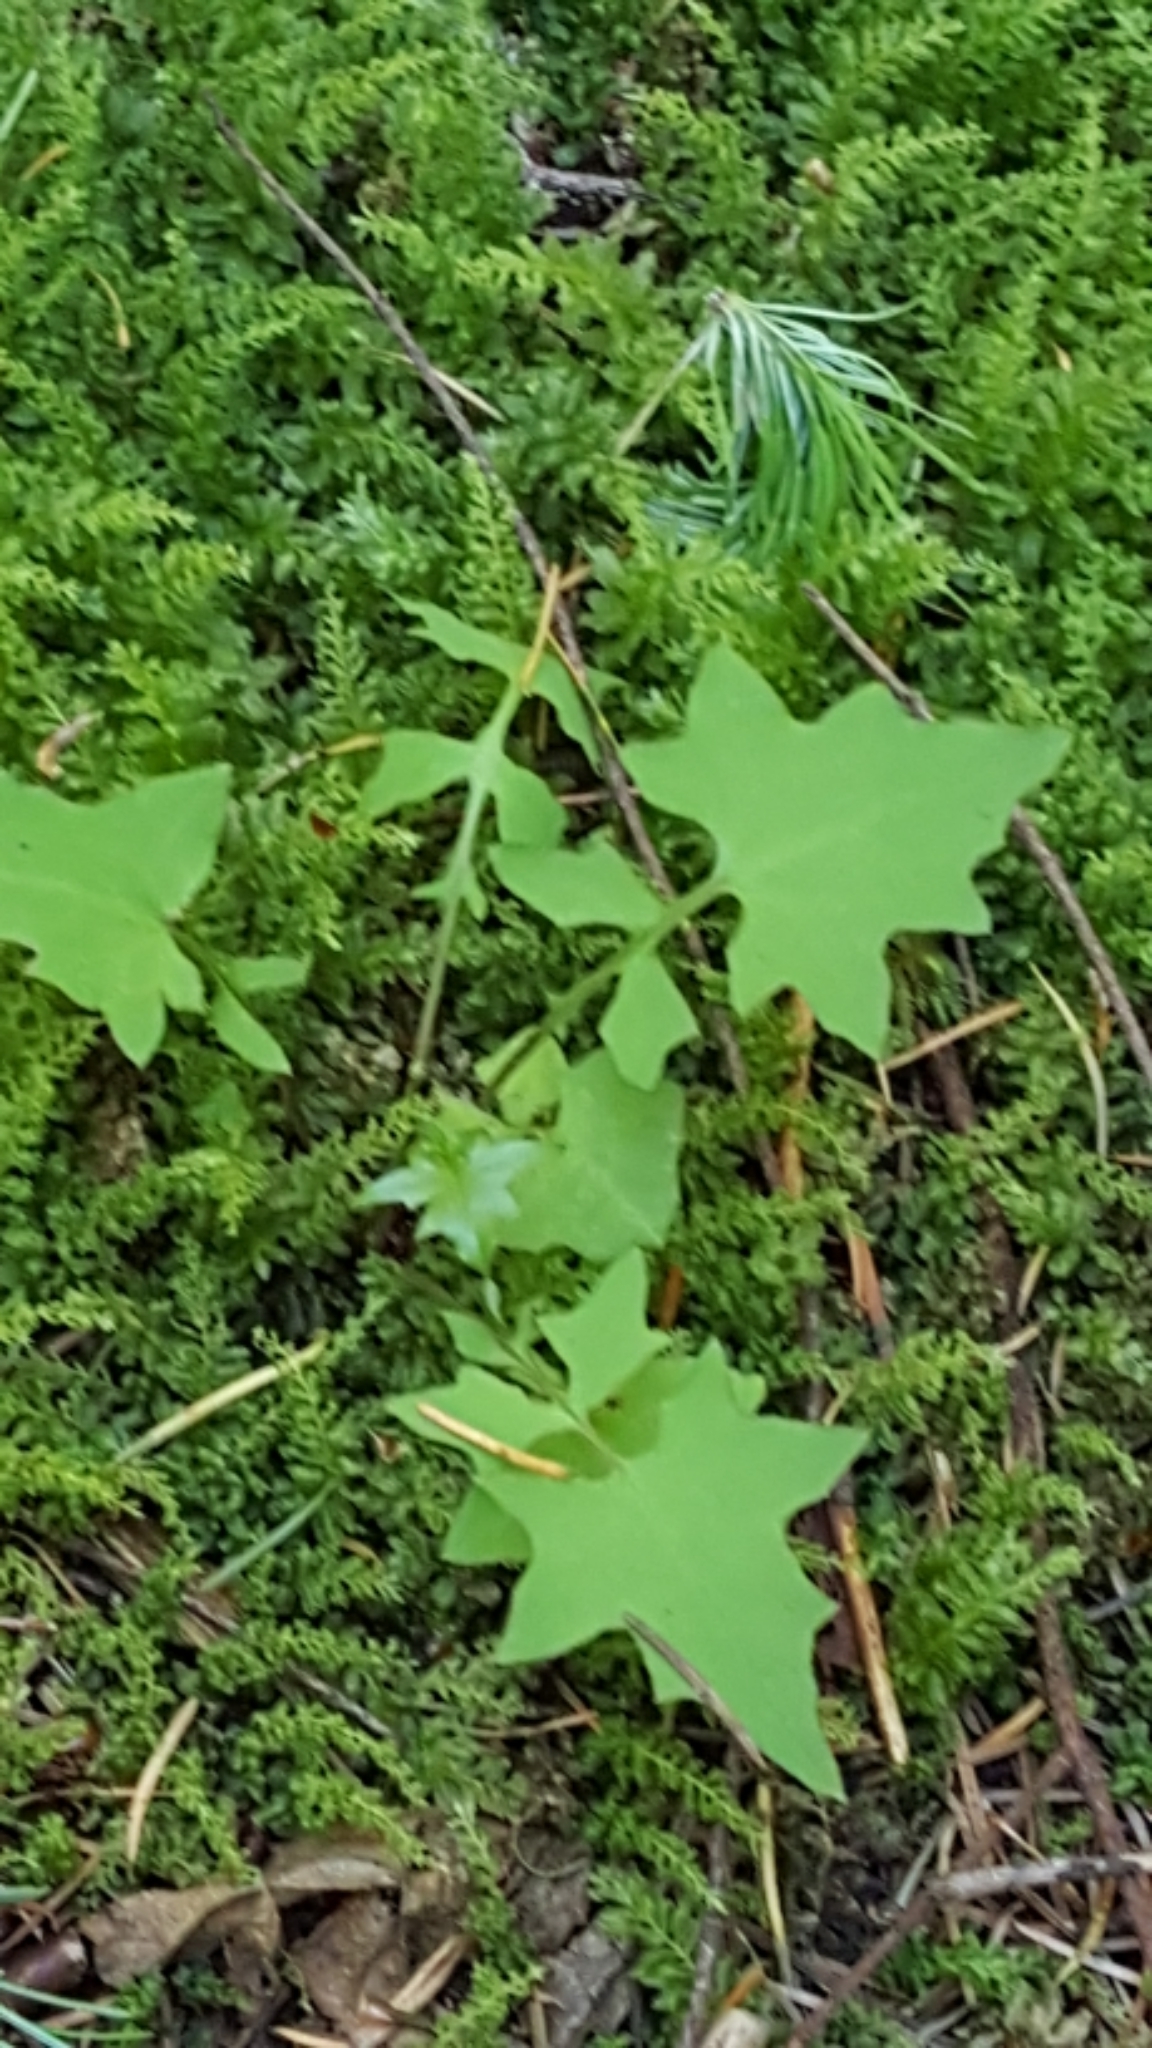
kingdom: Plantae
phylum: Tracheophyta
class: Magnoliopsida
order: Asterales
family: Asteraceae
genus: Mycelis
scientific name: Mycelis muralis
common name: Wall lettuce
